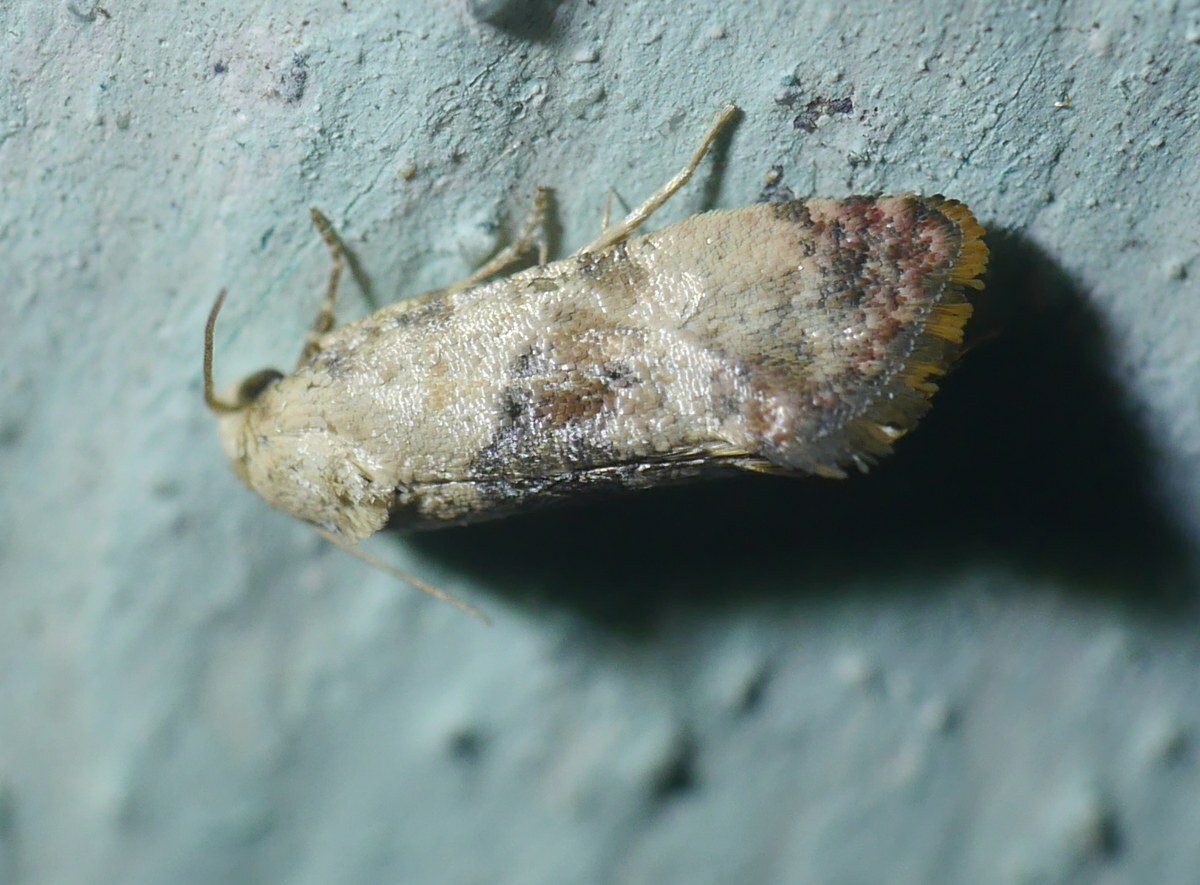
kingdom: Animalia
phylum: Arthropoda
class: Insecta
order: Lepidoptera
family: Tortricidae
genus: Cochylis
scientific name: Cochylis Pontoturania posterana
